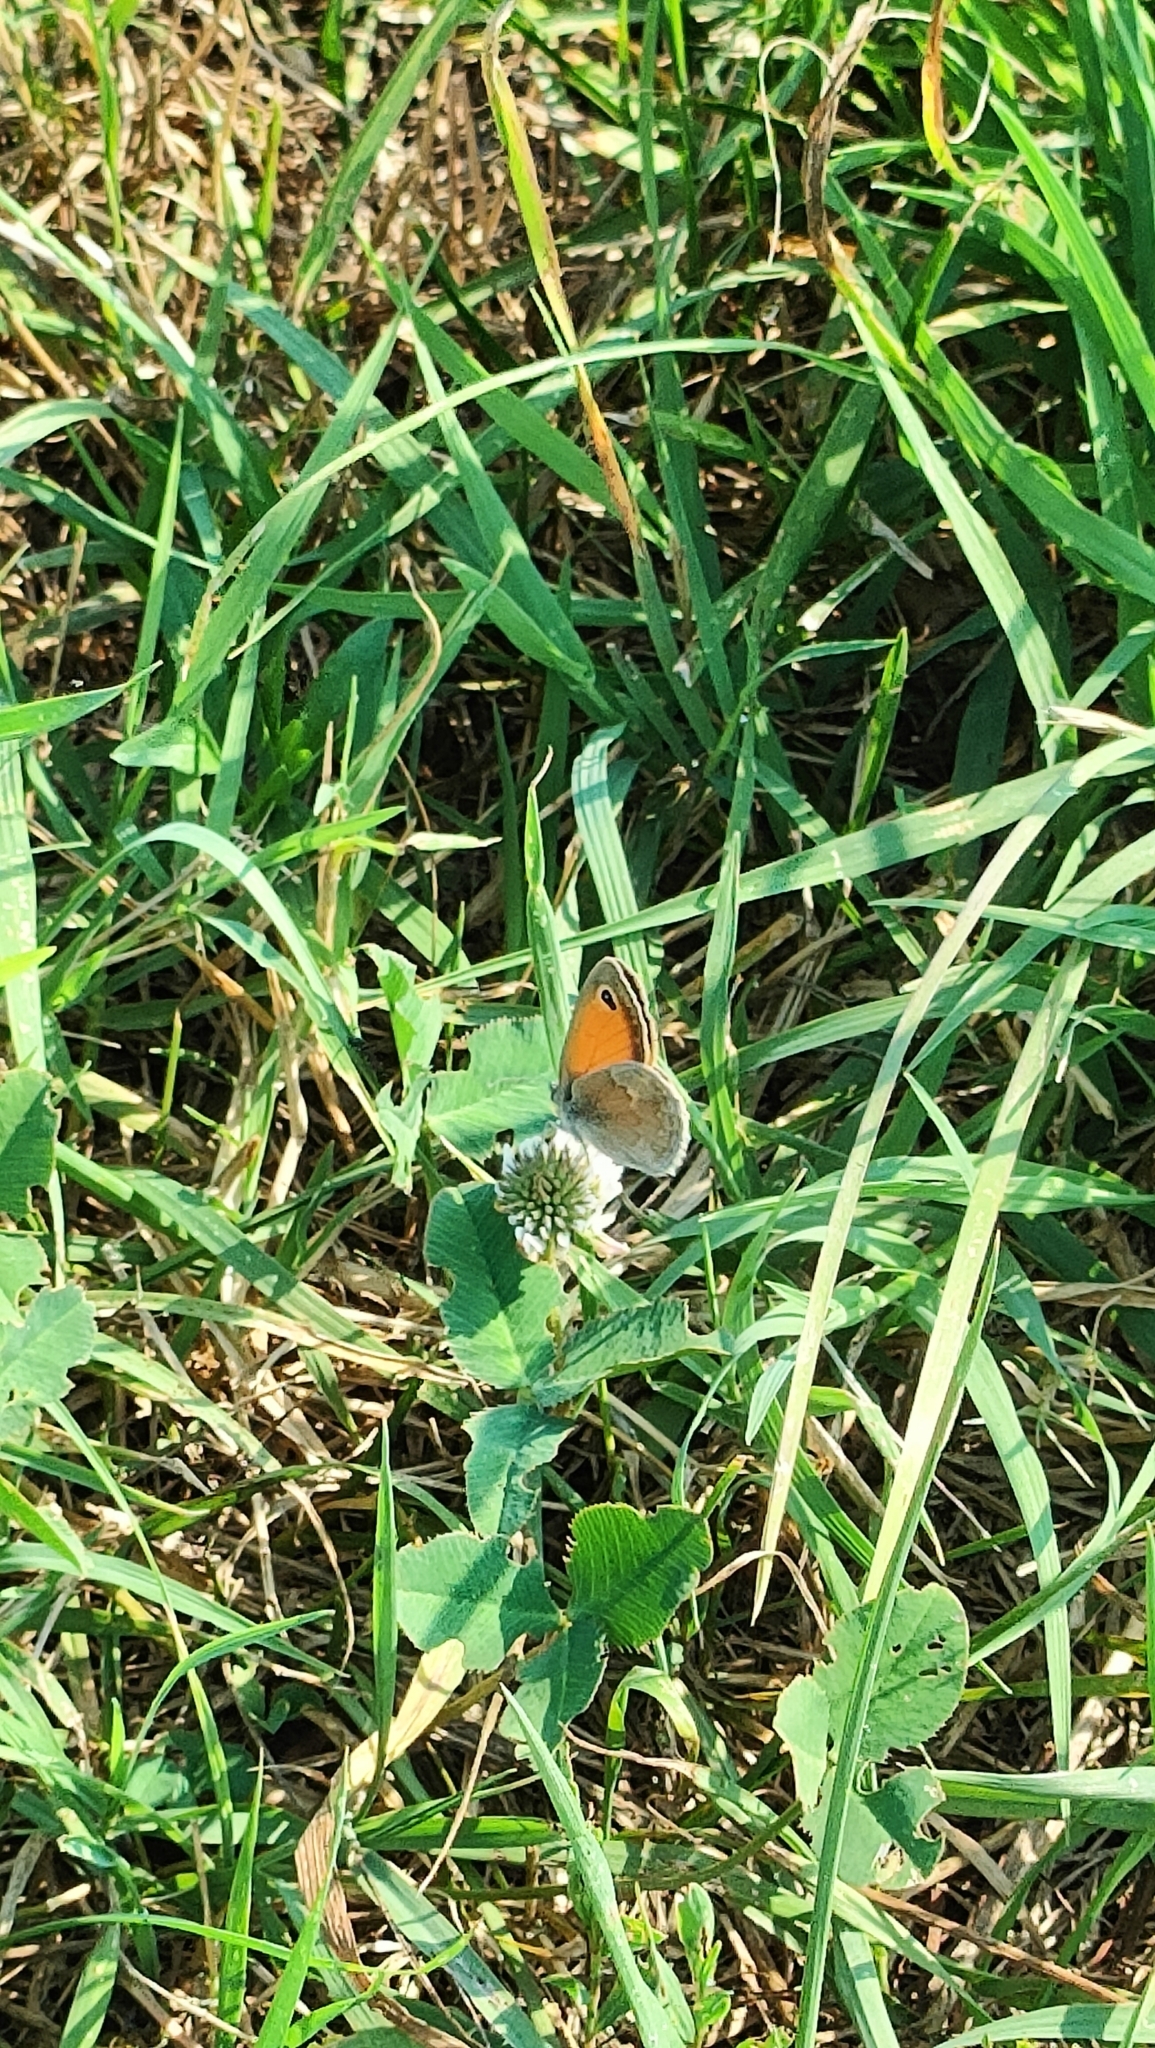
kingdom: Animalia
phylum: Arthropoda
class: Insecta
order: Lepidoptera
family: Nymphalidae
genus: Coenonympha
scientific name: Coenonympha pamphilus
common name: Small heath
